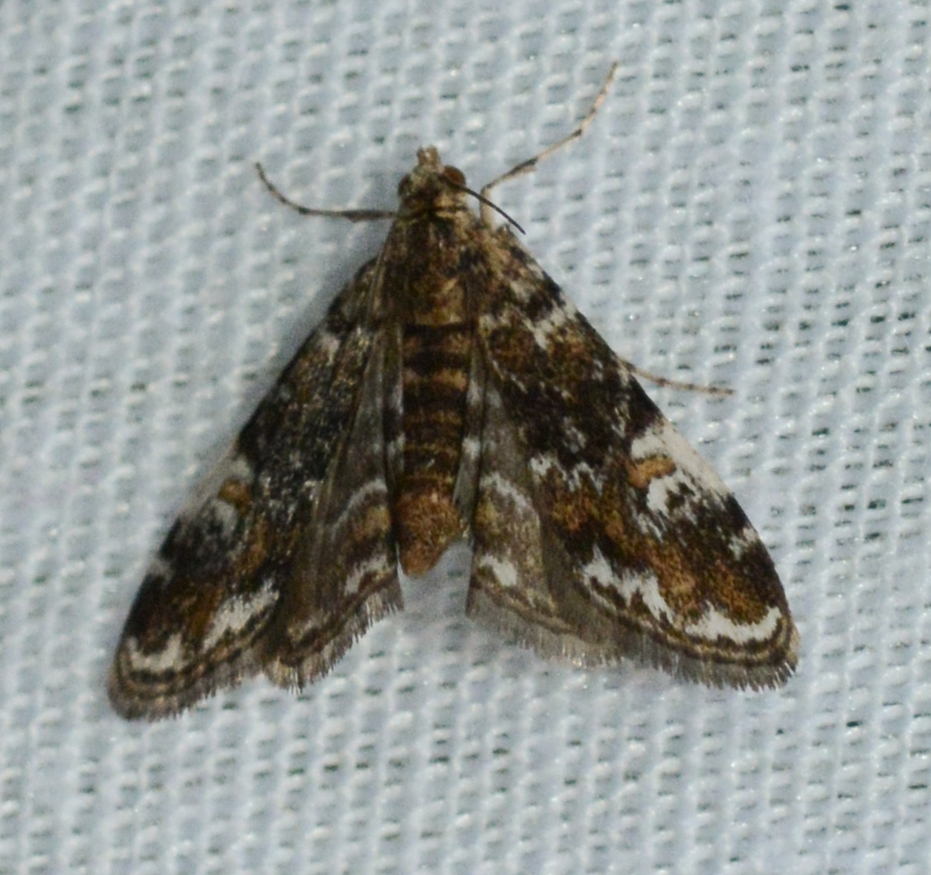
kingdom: Animalia
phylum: Arthropoda
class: Insecta
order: Lepidoptera
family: Crambidae
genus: Elophila
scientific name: Elophila obliteralis
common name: Waterlily leafcutter moth
